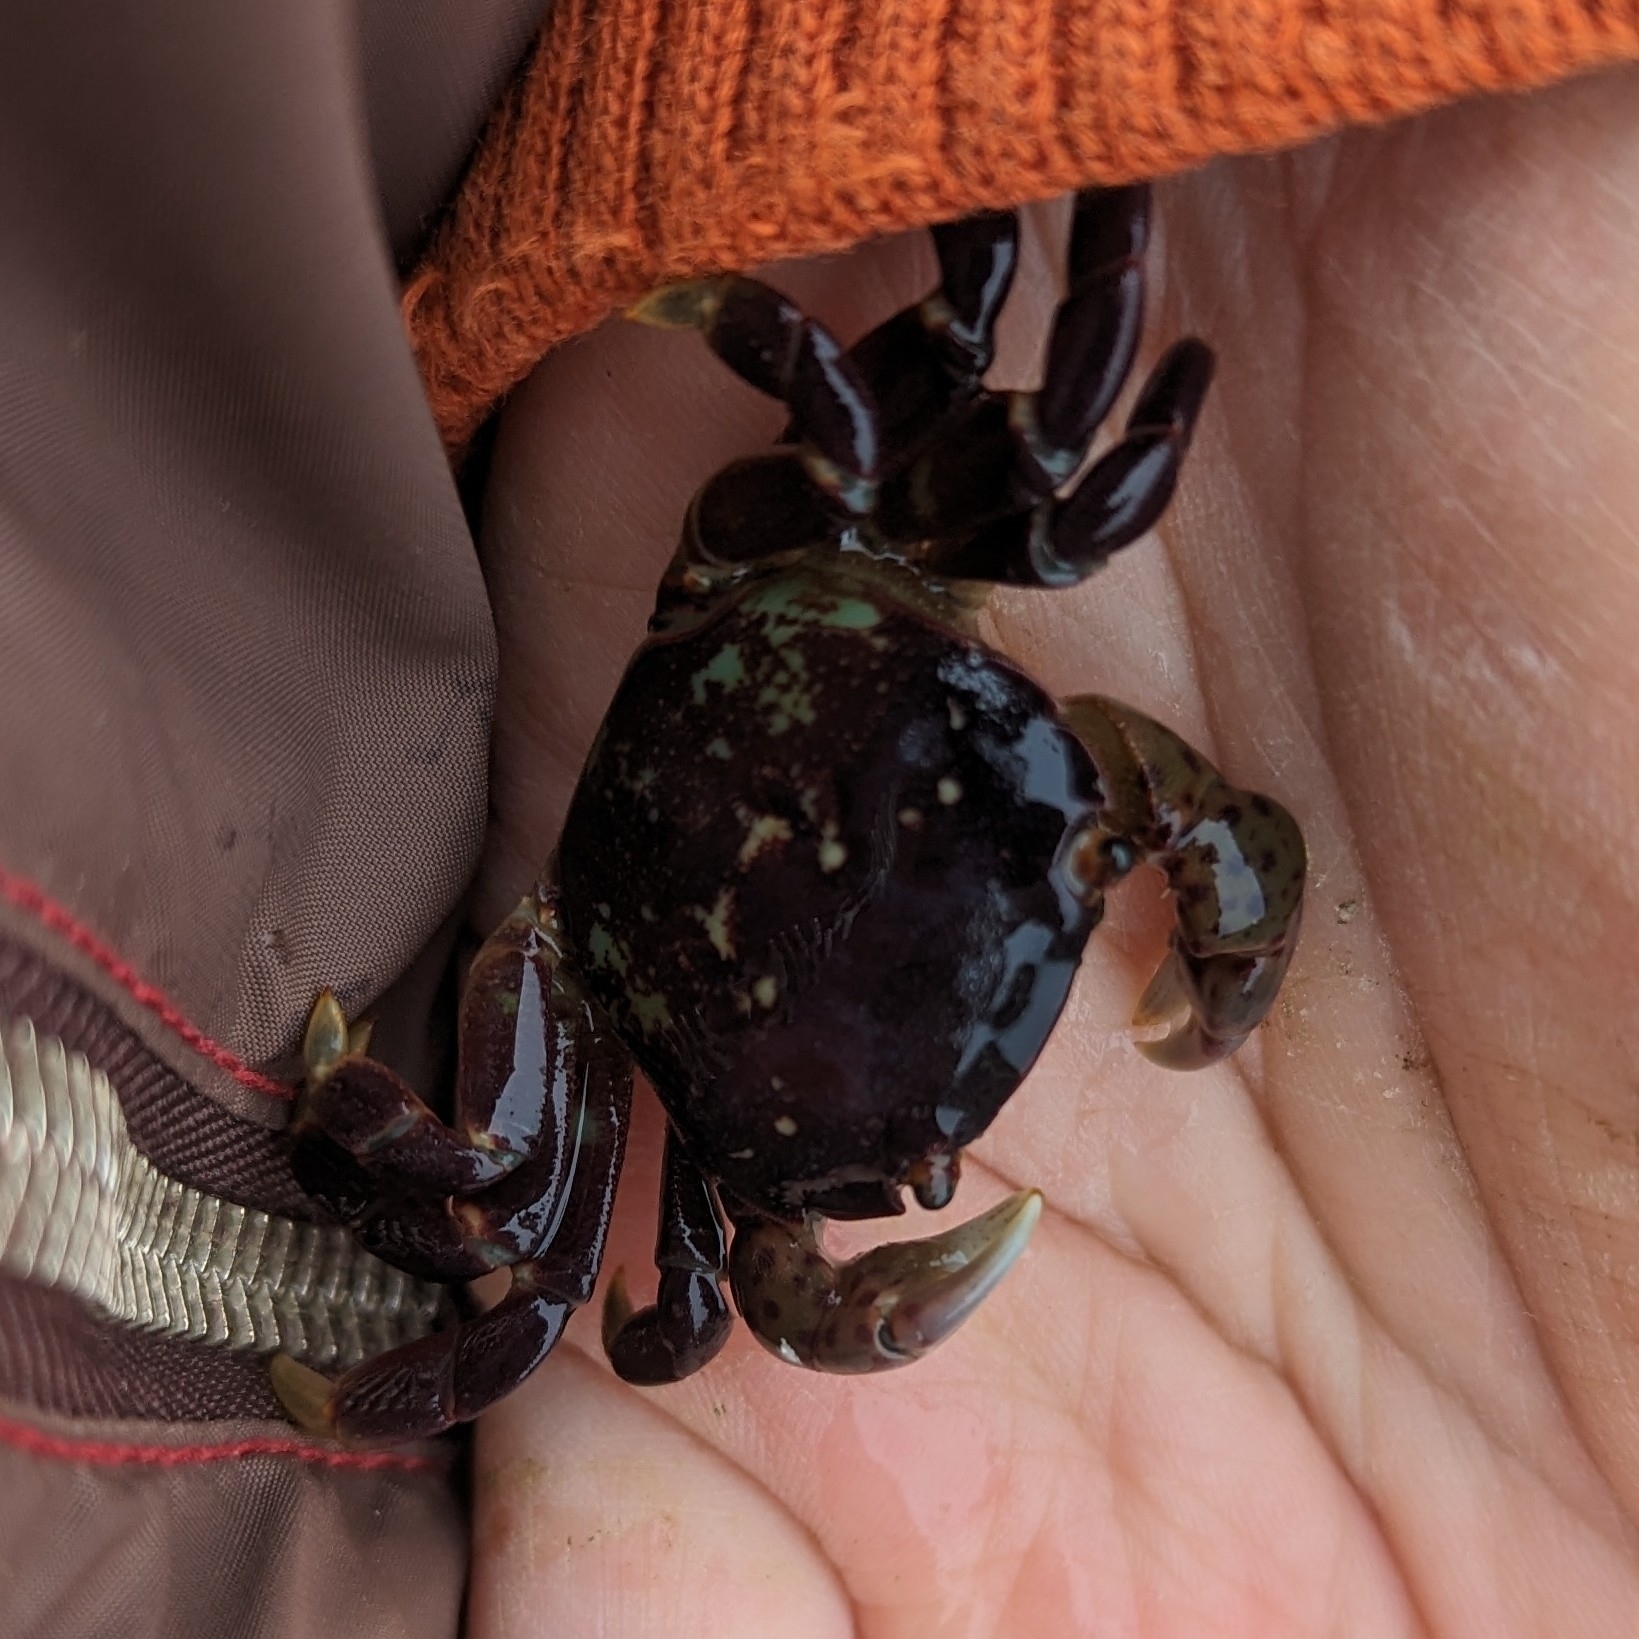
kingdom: Animalia
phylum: Arthropoda
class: Malacostraca
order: Decapoda
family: Varunidae
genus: Hemigrapsus
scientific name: Hemigrapsus nudus
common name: Purple shore crab
